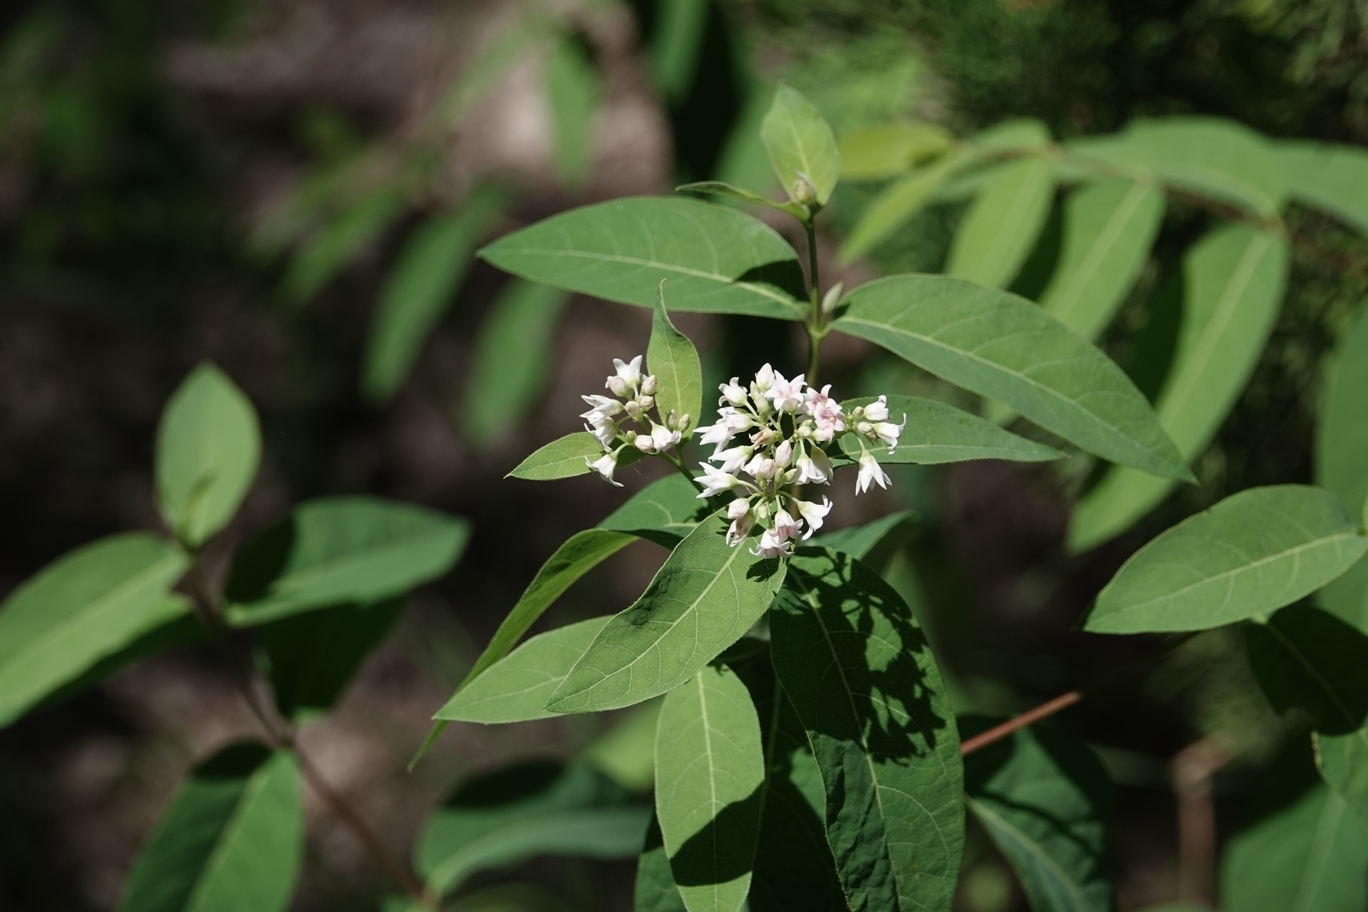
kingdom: Plantae
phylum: Tracheophyta
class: Magnoliopsida
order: Gentianales
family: Apocynaceae
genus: Apocynum
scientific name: Apocynum cannabinum
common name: Hemp dogbane
